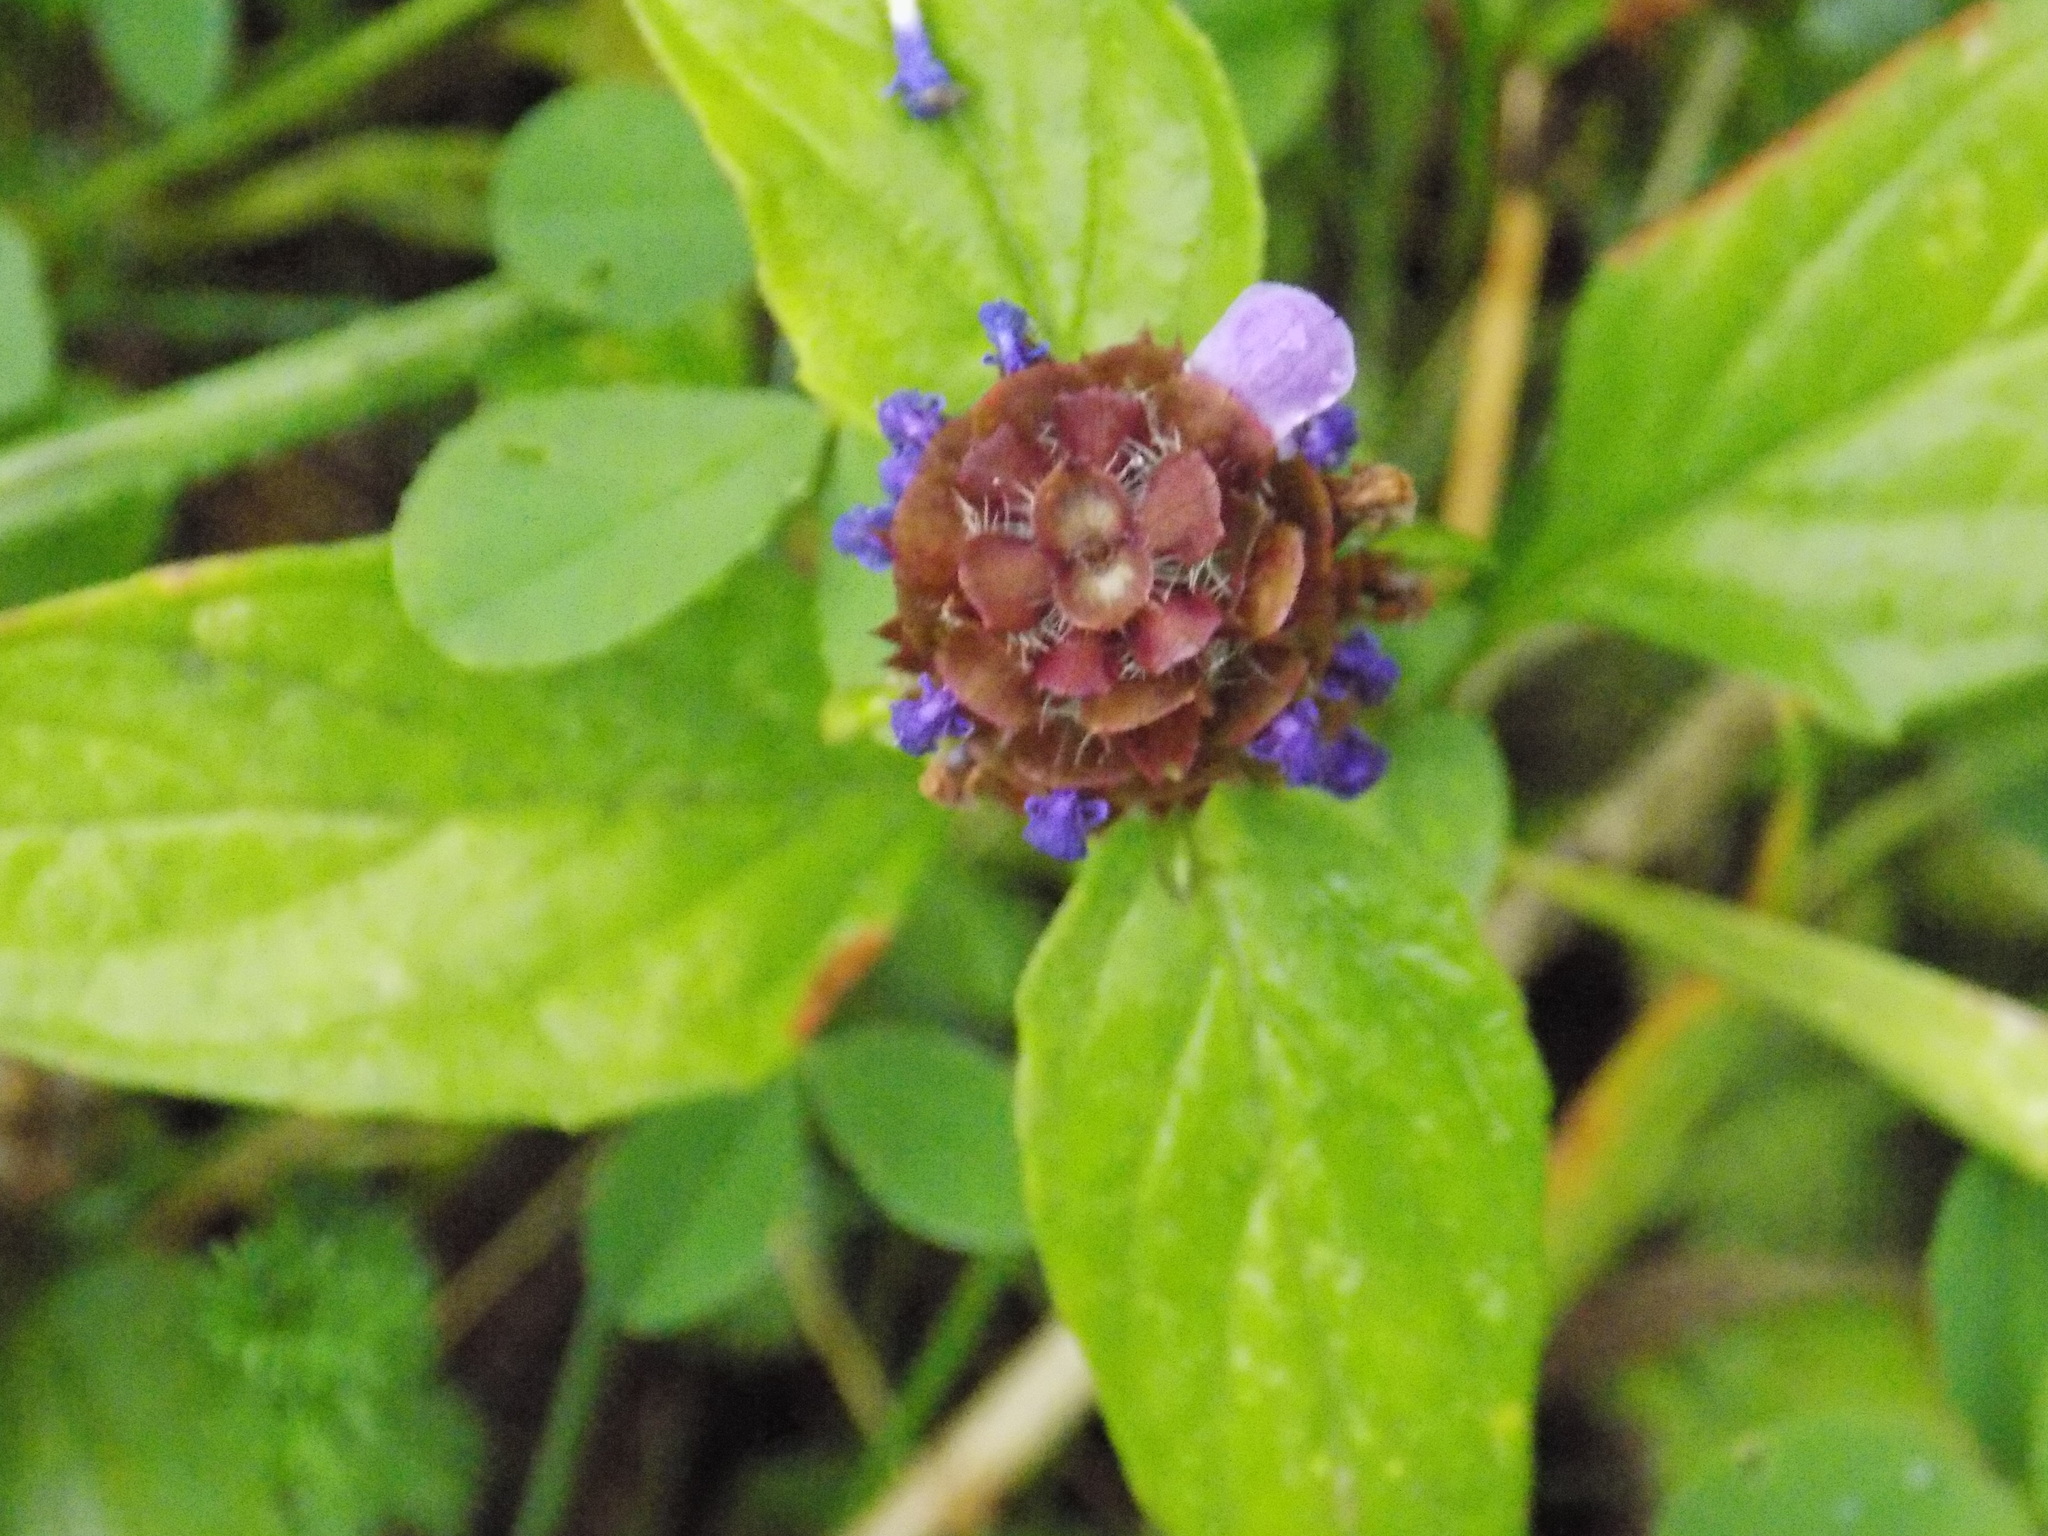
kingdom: Plantae
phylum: Tracheophyta
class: Magnoliopsida
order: Lamiales
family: Lamiaceae
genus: Prunella
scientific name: Prunella vulgaris
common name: Heal-all
